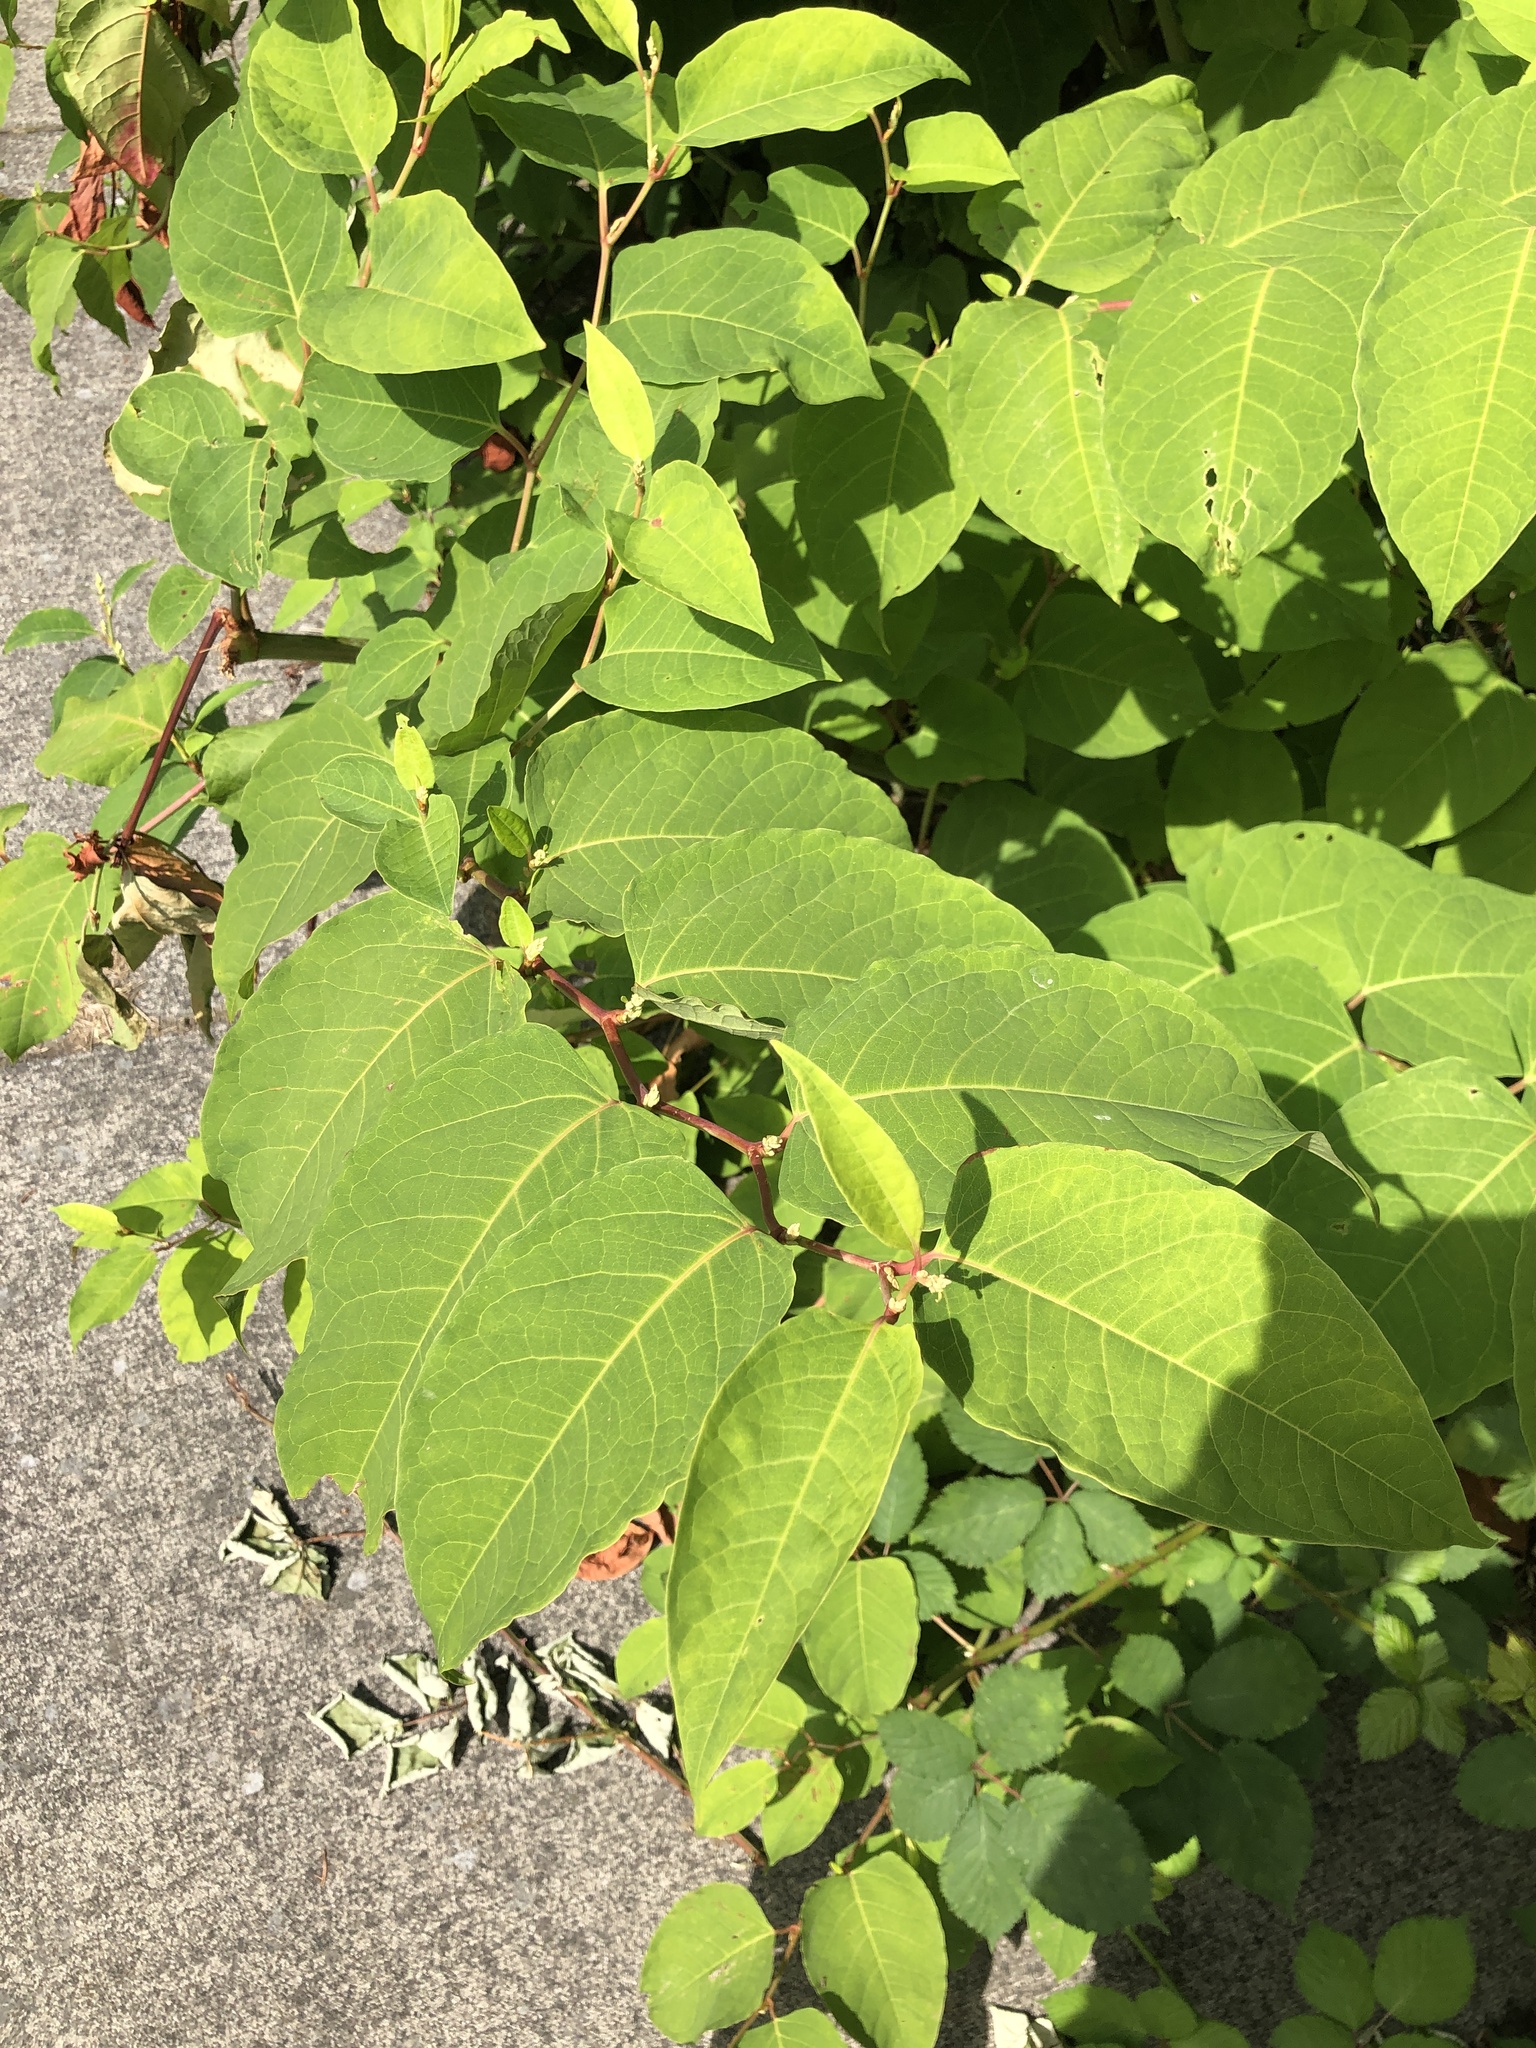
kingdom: Plantae
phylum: Tracheophyta
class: Magnoliopsida
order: Caryophyllales
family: Polygonaceae
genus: Reynoutria
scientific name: Reynoutria japonica
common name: Japanese knotweed
